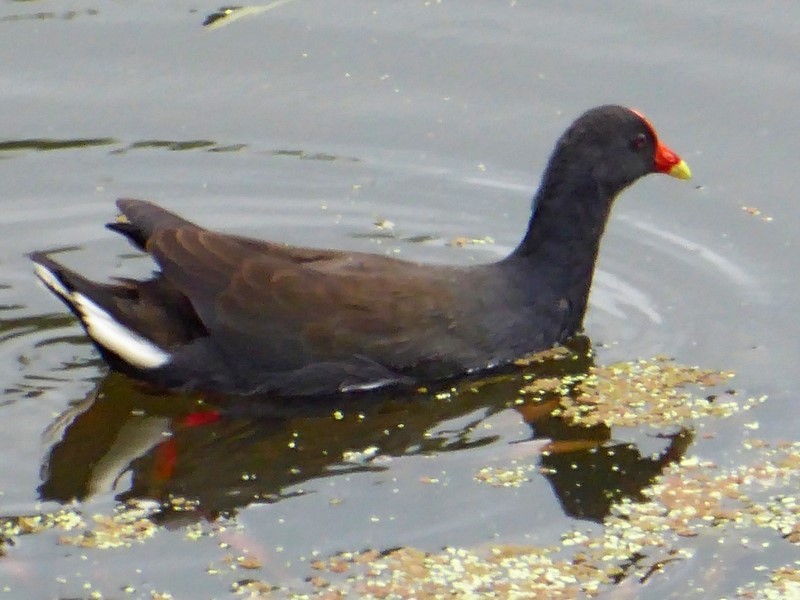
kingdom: Animalia
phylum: Chordata
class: Aves
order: Gruiformes
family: Rallidae
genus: Gallinula
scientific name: Gallinula tenebrosa
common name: Dusky moorhen
